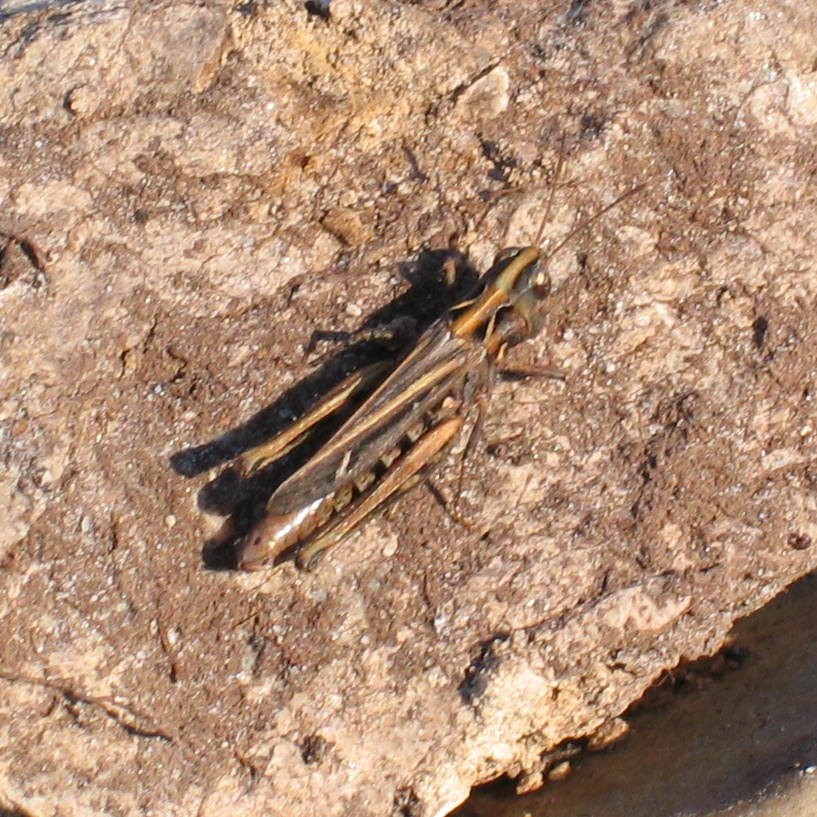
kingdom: Animalia
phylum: Arthropoda
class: Insecta
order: Orthoptera
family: Acrididae
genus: Myrmeleotettix
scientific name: Myrmeleotettix maculatus
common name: Mottled grasshopper
